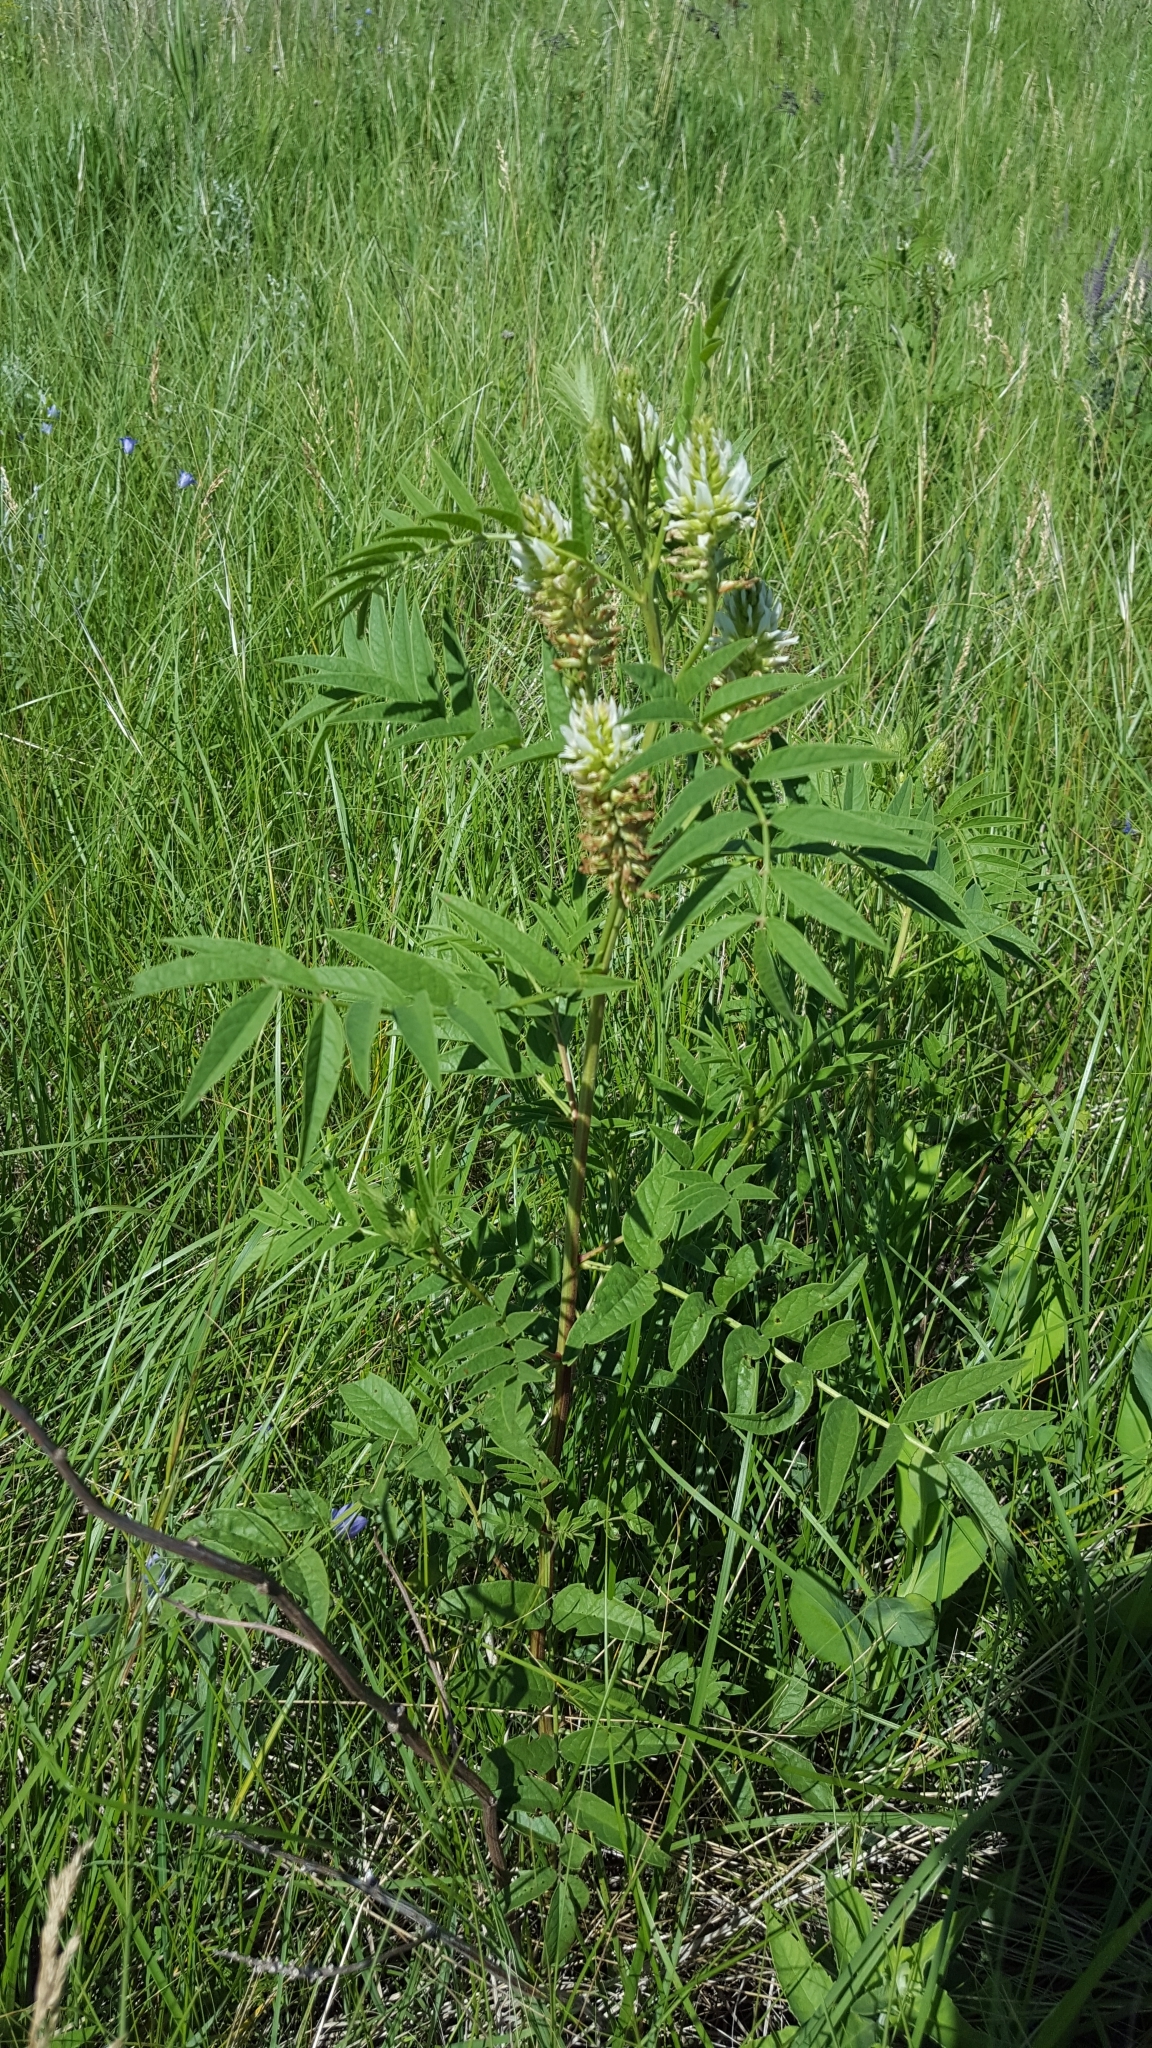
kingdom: Plantae
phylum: Tracheophyta
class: Magnoliopsida
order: Fabales
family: Fabaceae
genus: Glycyrrhiza
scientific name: Glycyrrhiza lepidota
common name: American liquorice
